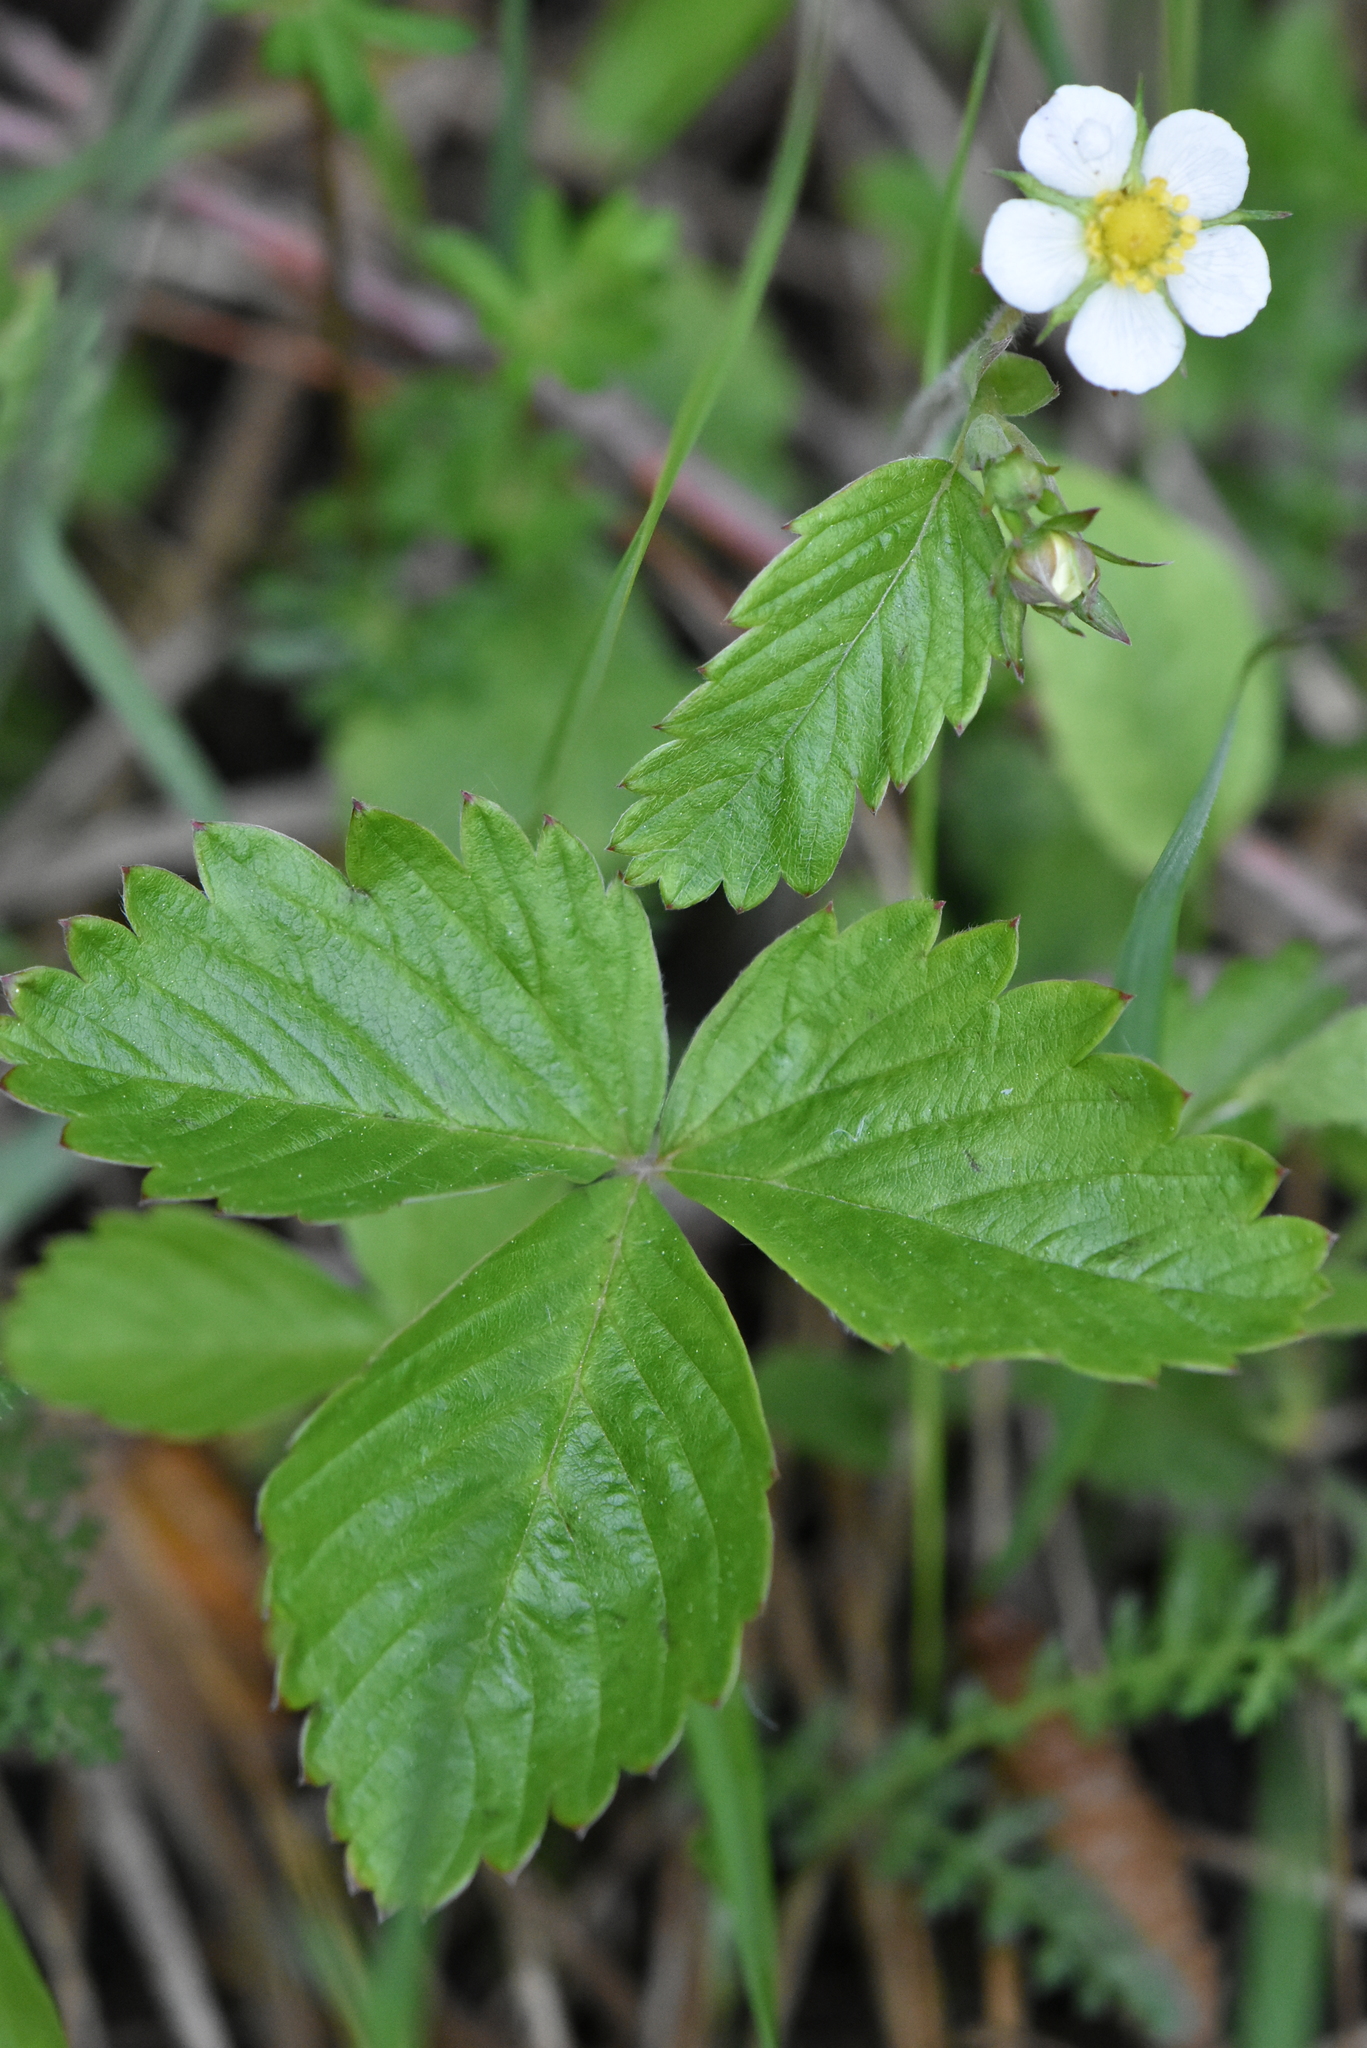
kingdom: Plantae
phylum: Tracheophyta
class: Magnoliopsida
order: Rosales
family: Rosaceae
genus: Fragaria
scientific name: Fragaria vesca
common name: Wild strawberry
